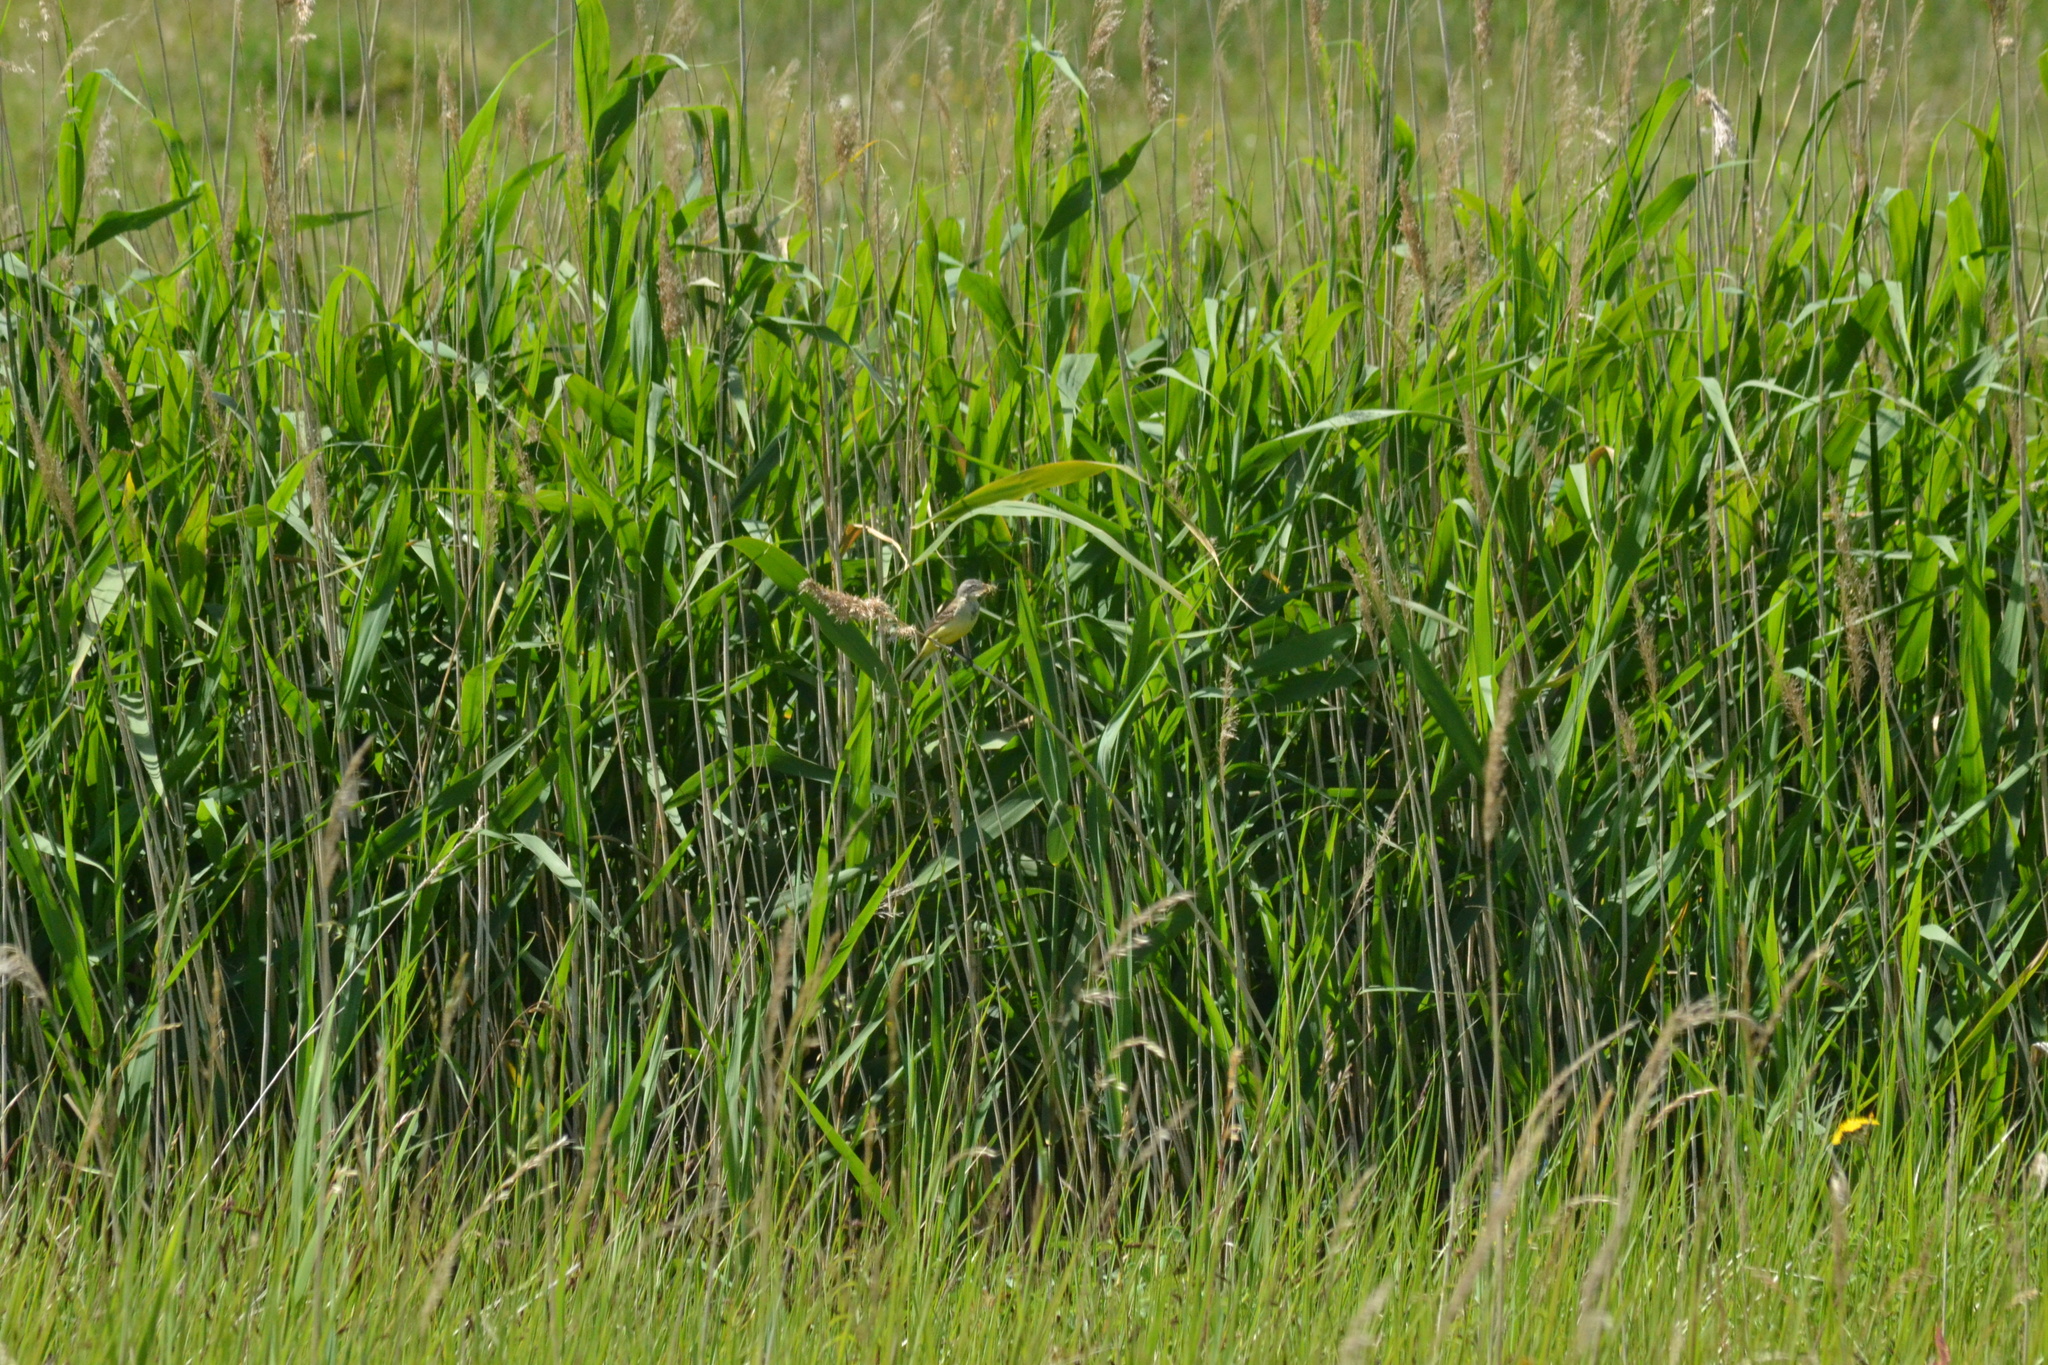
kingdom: Animalia
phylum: Chordata
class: Aves
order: Passeriformes
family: Motacillidae
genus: Motacilla
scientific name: Motacilla flava
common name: Western yellow wagtail
